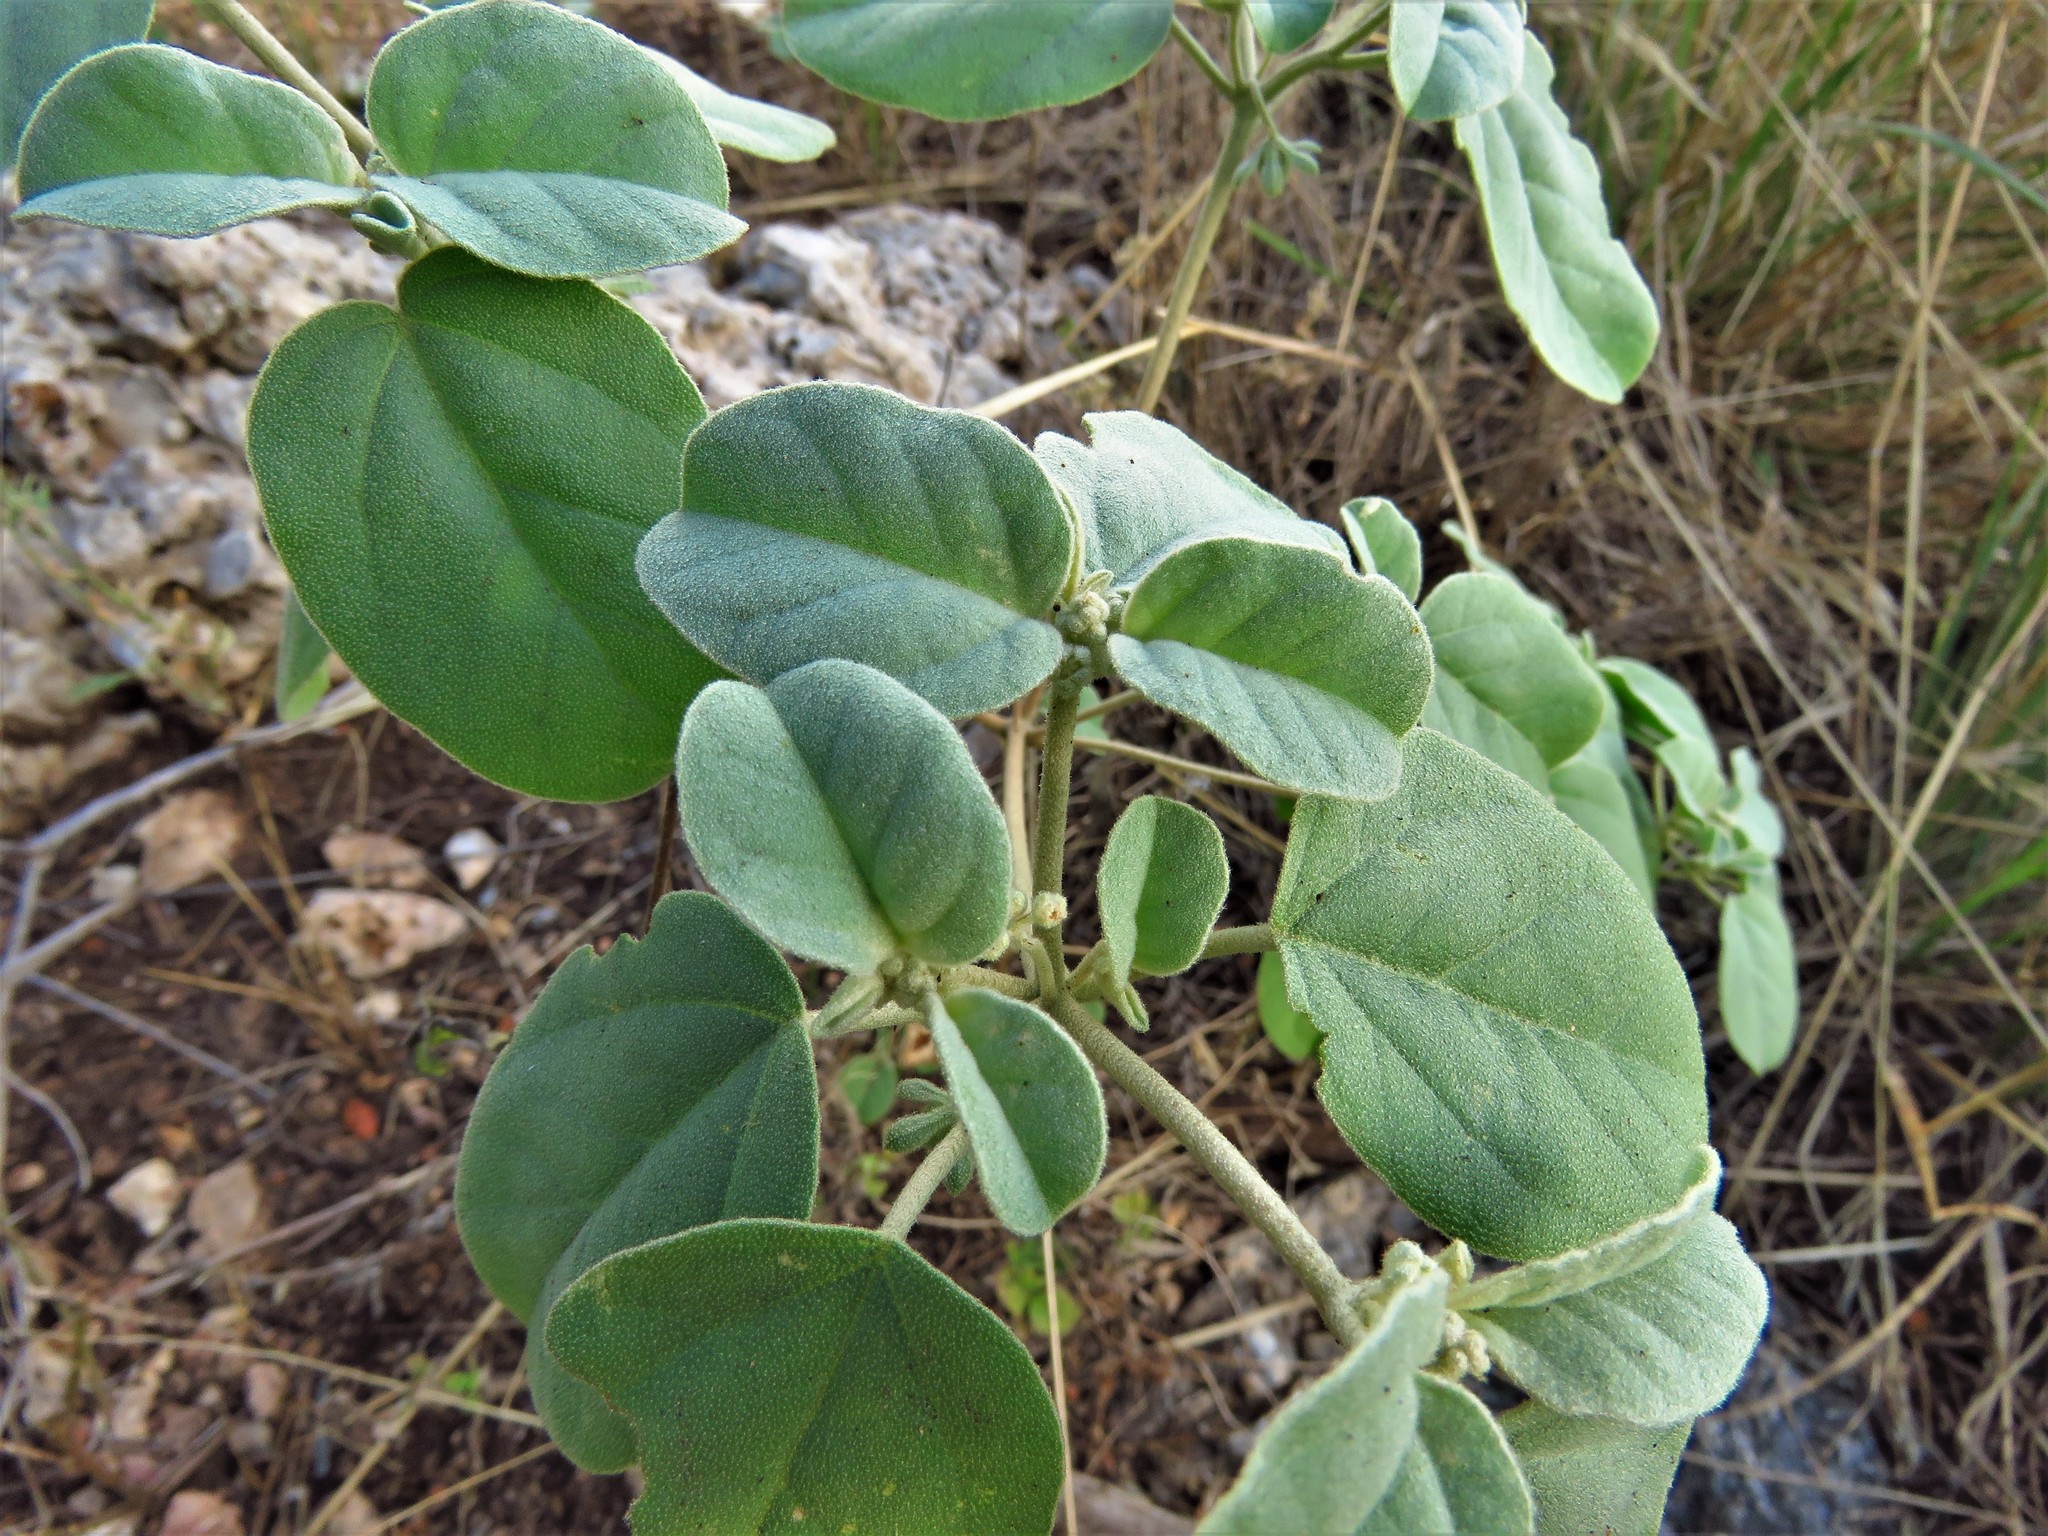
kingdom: Plantae
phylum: Tracheophyta
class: Magnoliopsida
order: Malpighiales
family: Euphorbiaceae
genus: Croton
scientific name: Croton monanthogynus
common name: One-seed croton
